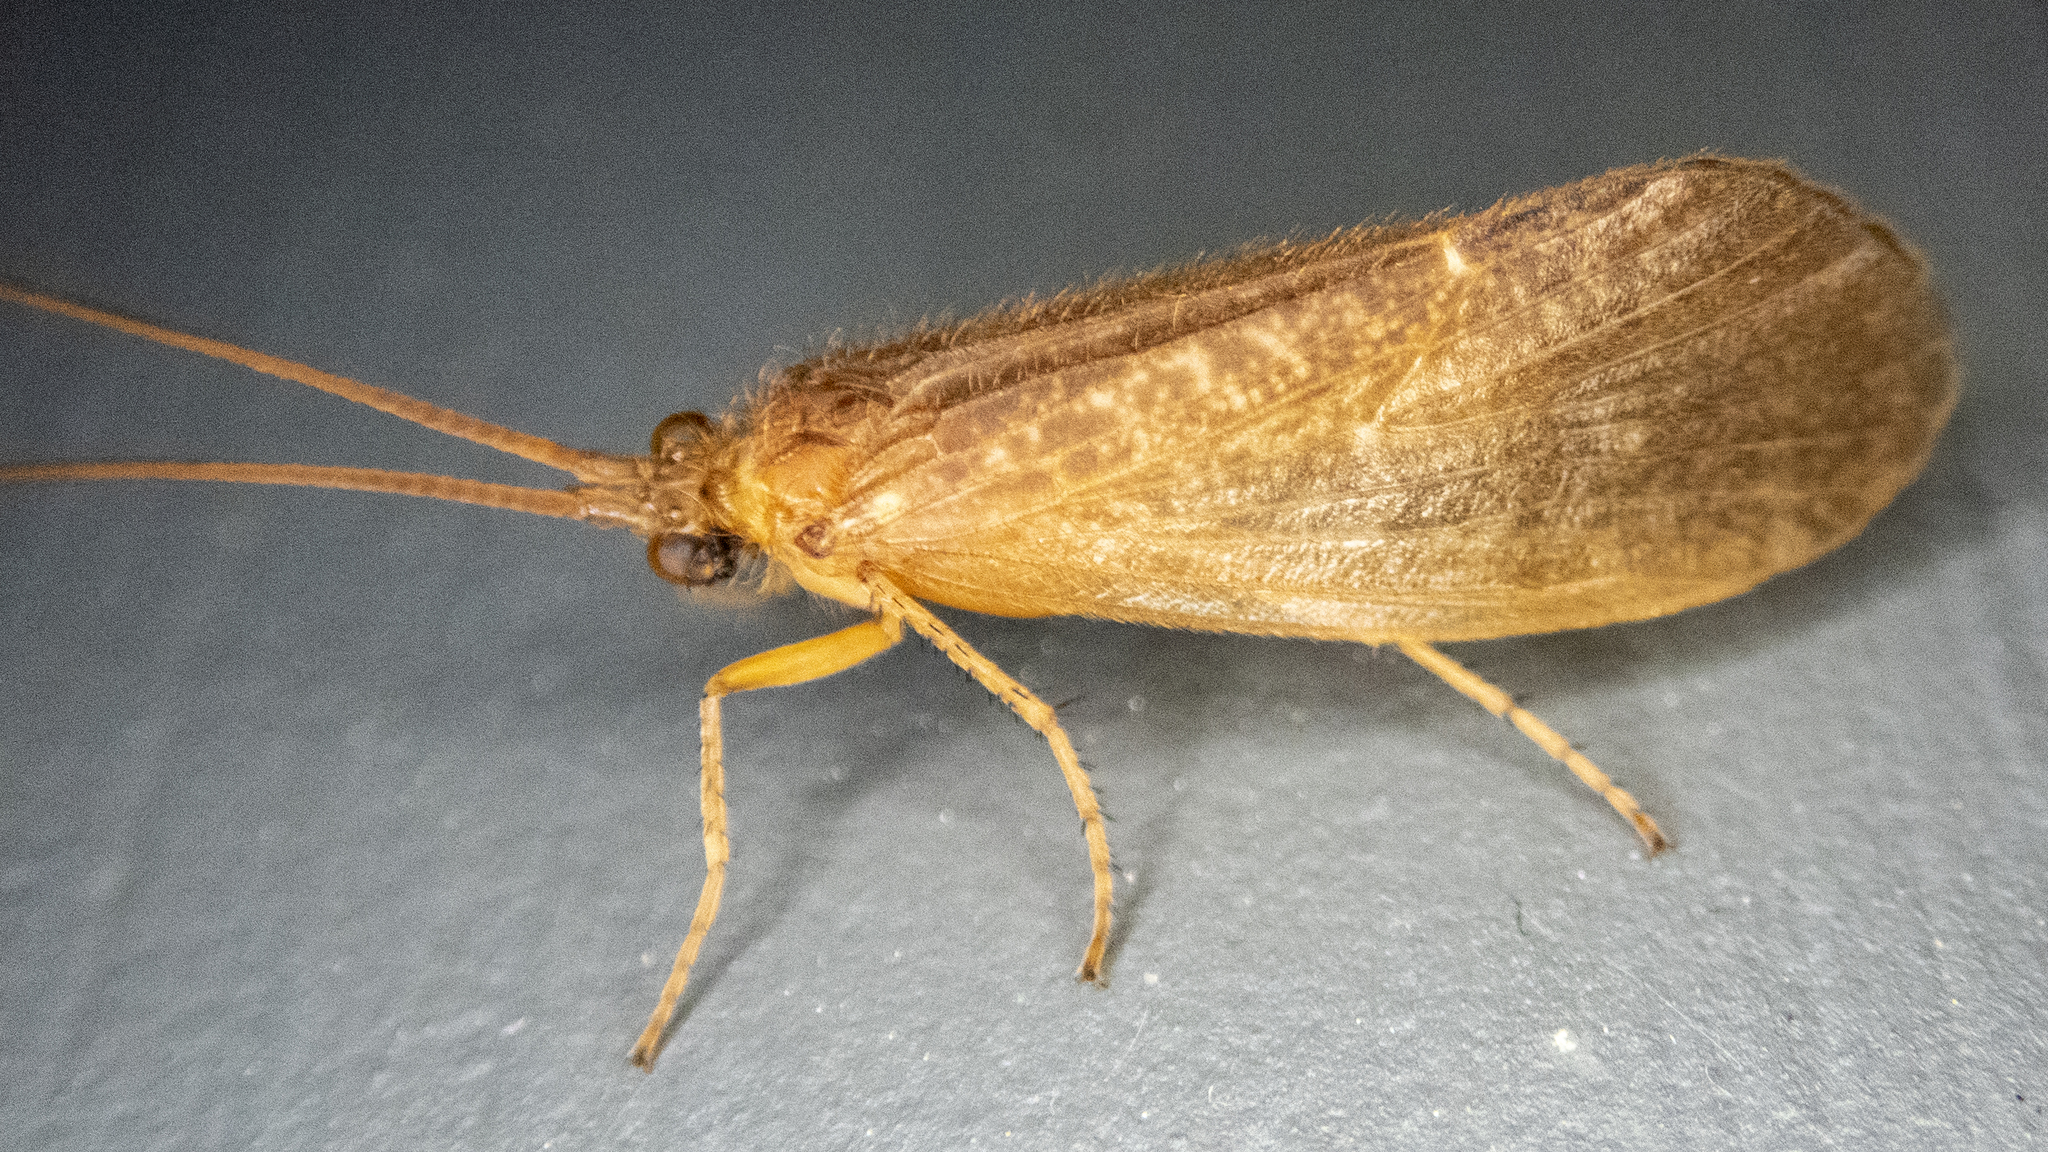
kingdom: Animalia
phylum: Arthropoda
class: Insecta
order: Trichoptera
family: Limnephilidae
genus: Ironoquia
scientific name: Ironoquia
